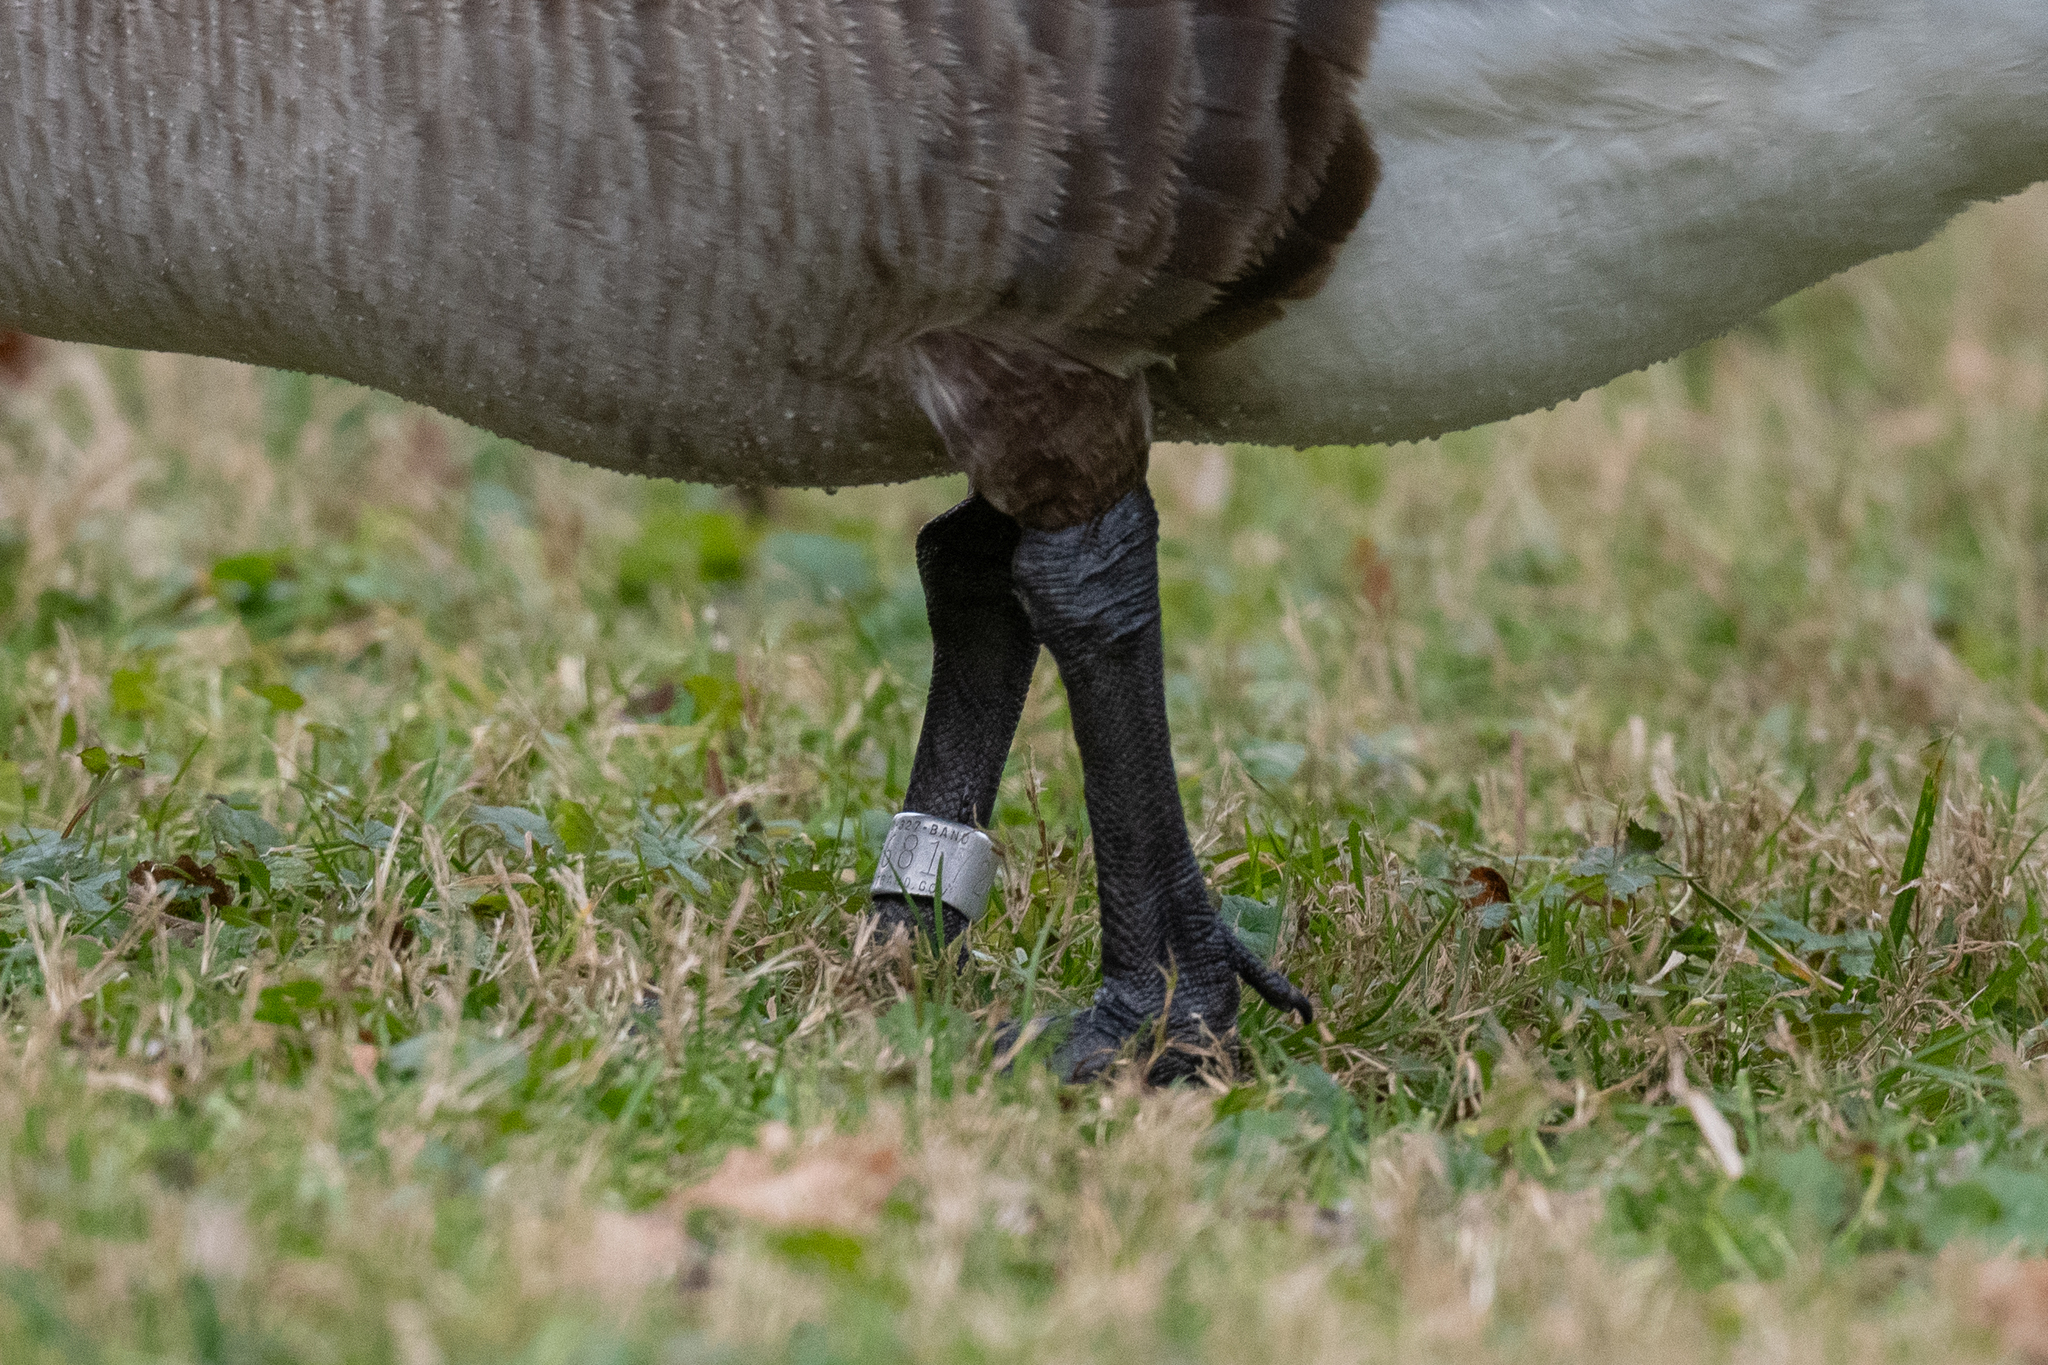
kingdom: Animalia
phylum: Chordata
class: Aves
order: Anseriformes
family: Anatidae
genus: Branta
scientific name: Branta canadensis
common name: Canada goose
